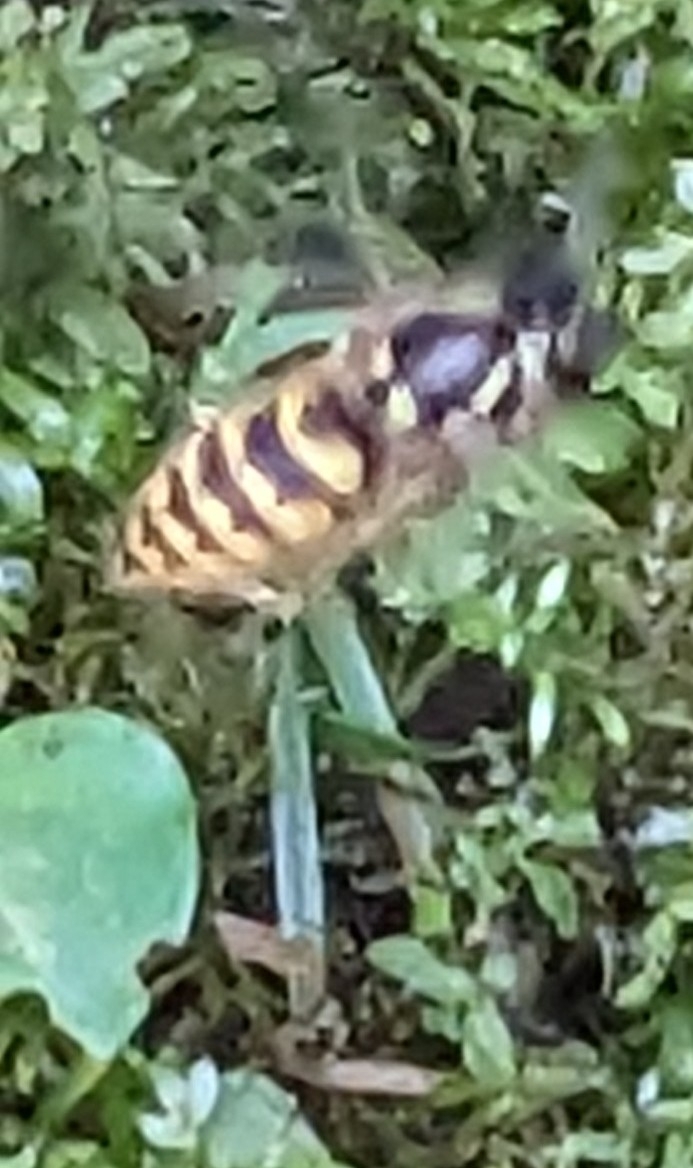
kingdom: Animalia
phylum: Arthropoda
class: Insecta
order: Hymenoptera
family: Vespidae
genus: Vespula
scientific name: Vespula vulgaris
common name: Common wasp
